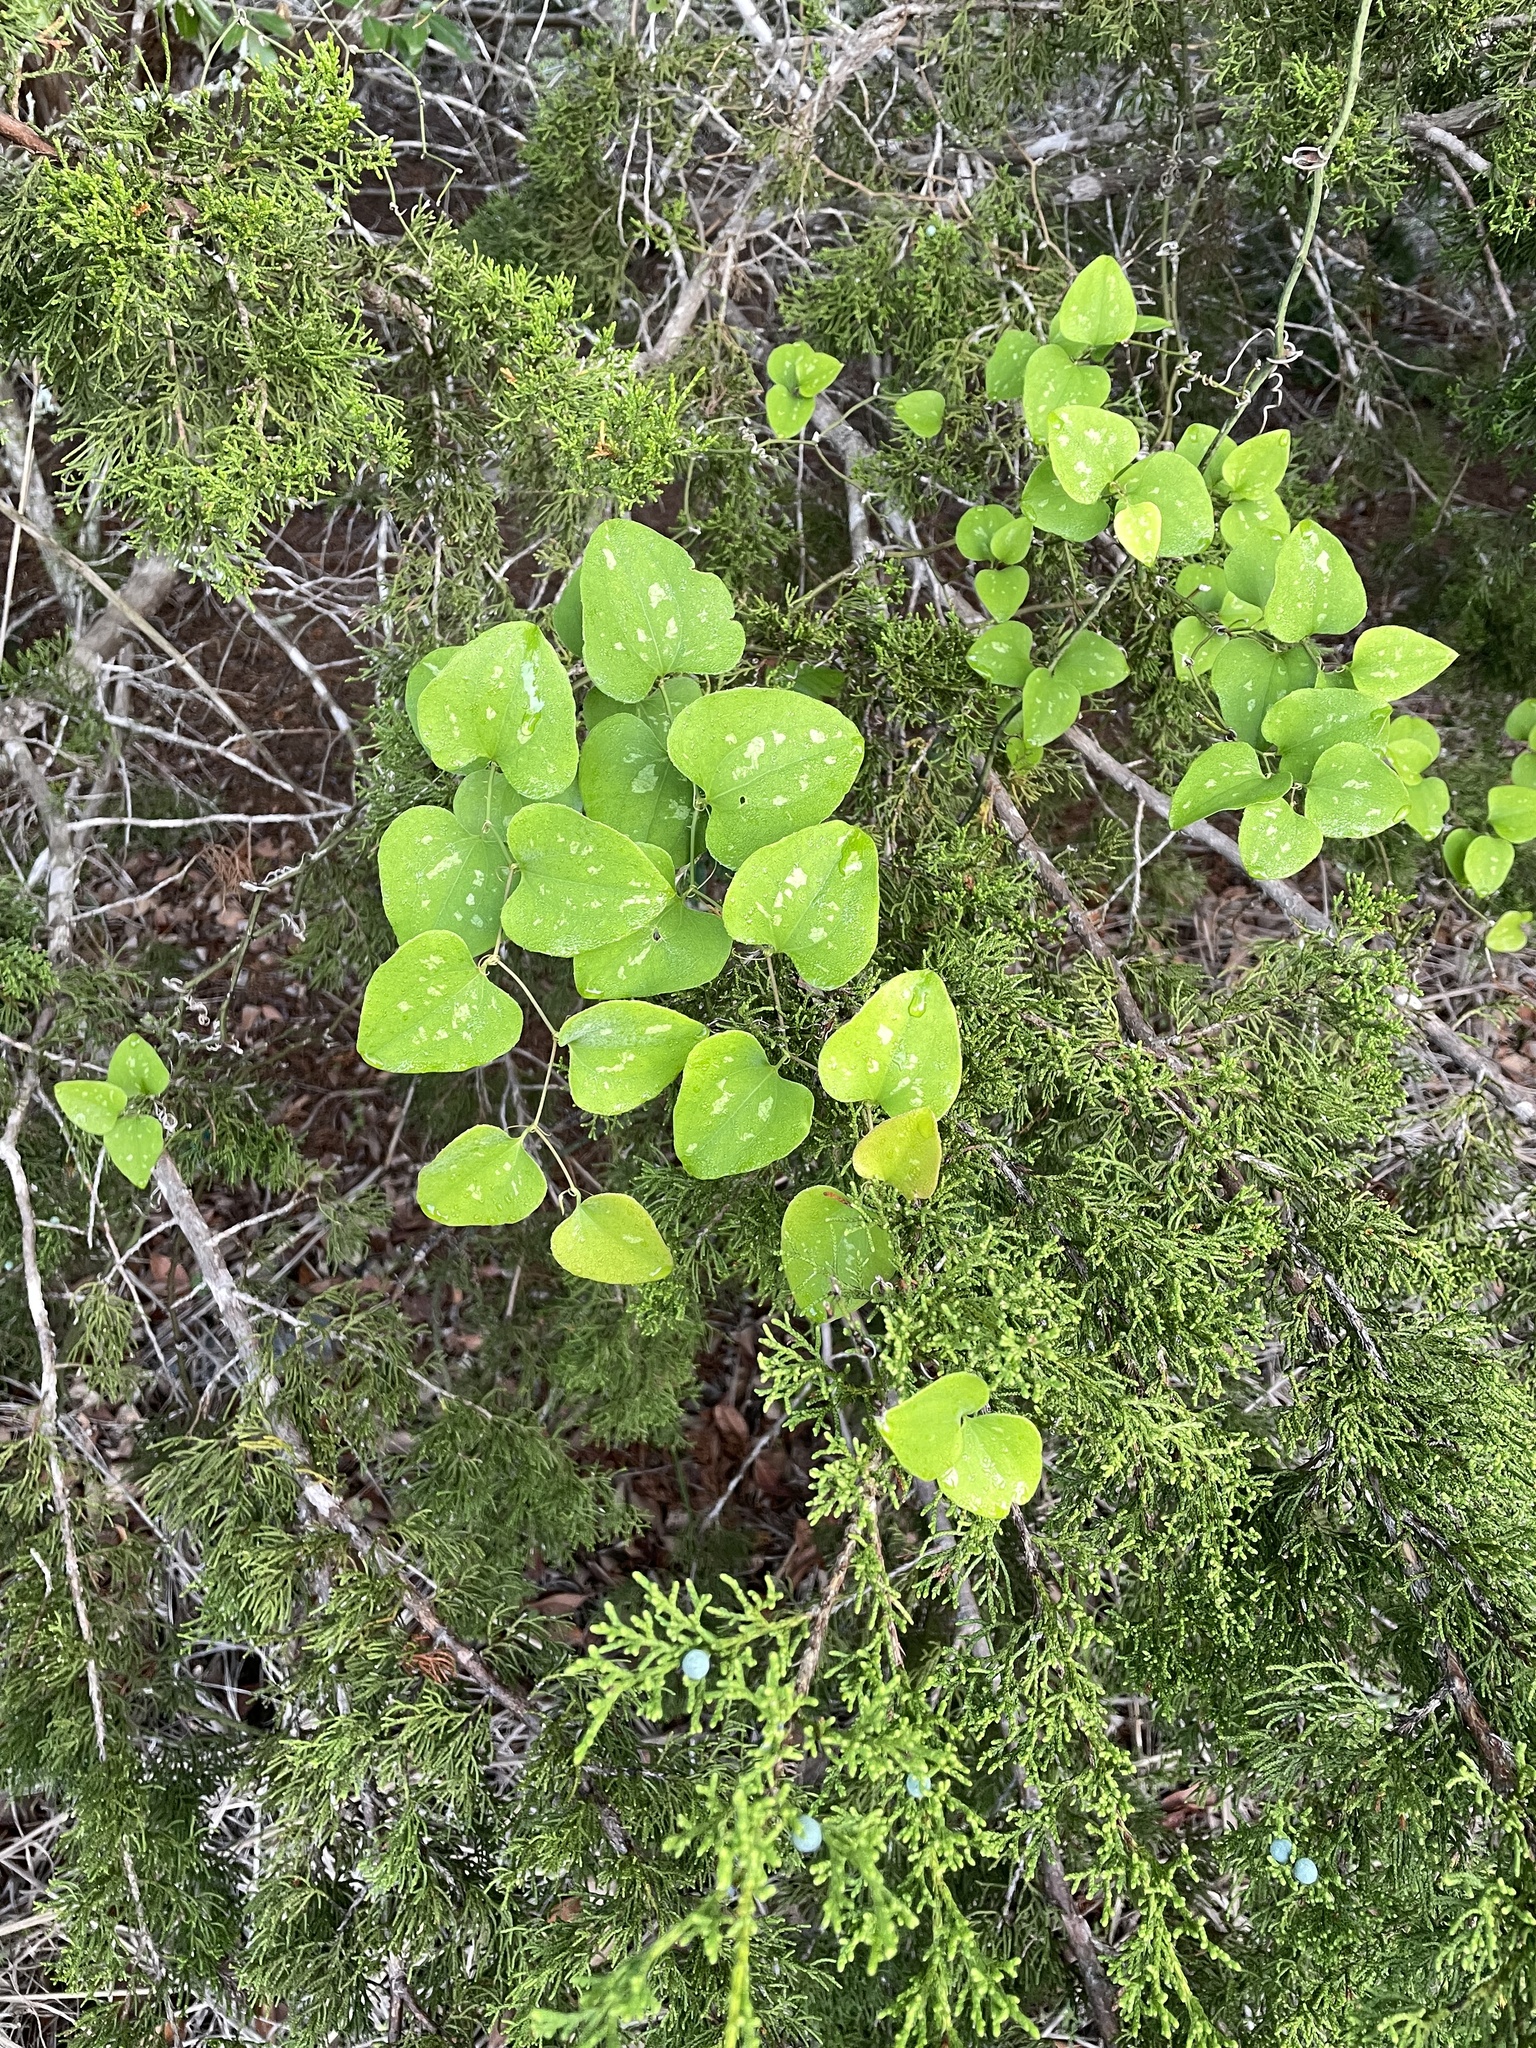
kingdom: Plantae
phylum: Tracheophyta
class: Liliopsida
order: Liliales
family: Smilacaceae
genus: Smilax
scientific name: Smilax bona-nox
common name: Catbrier
